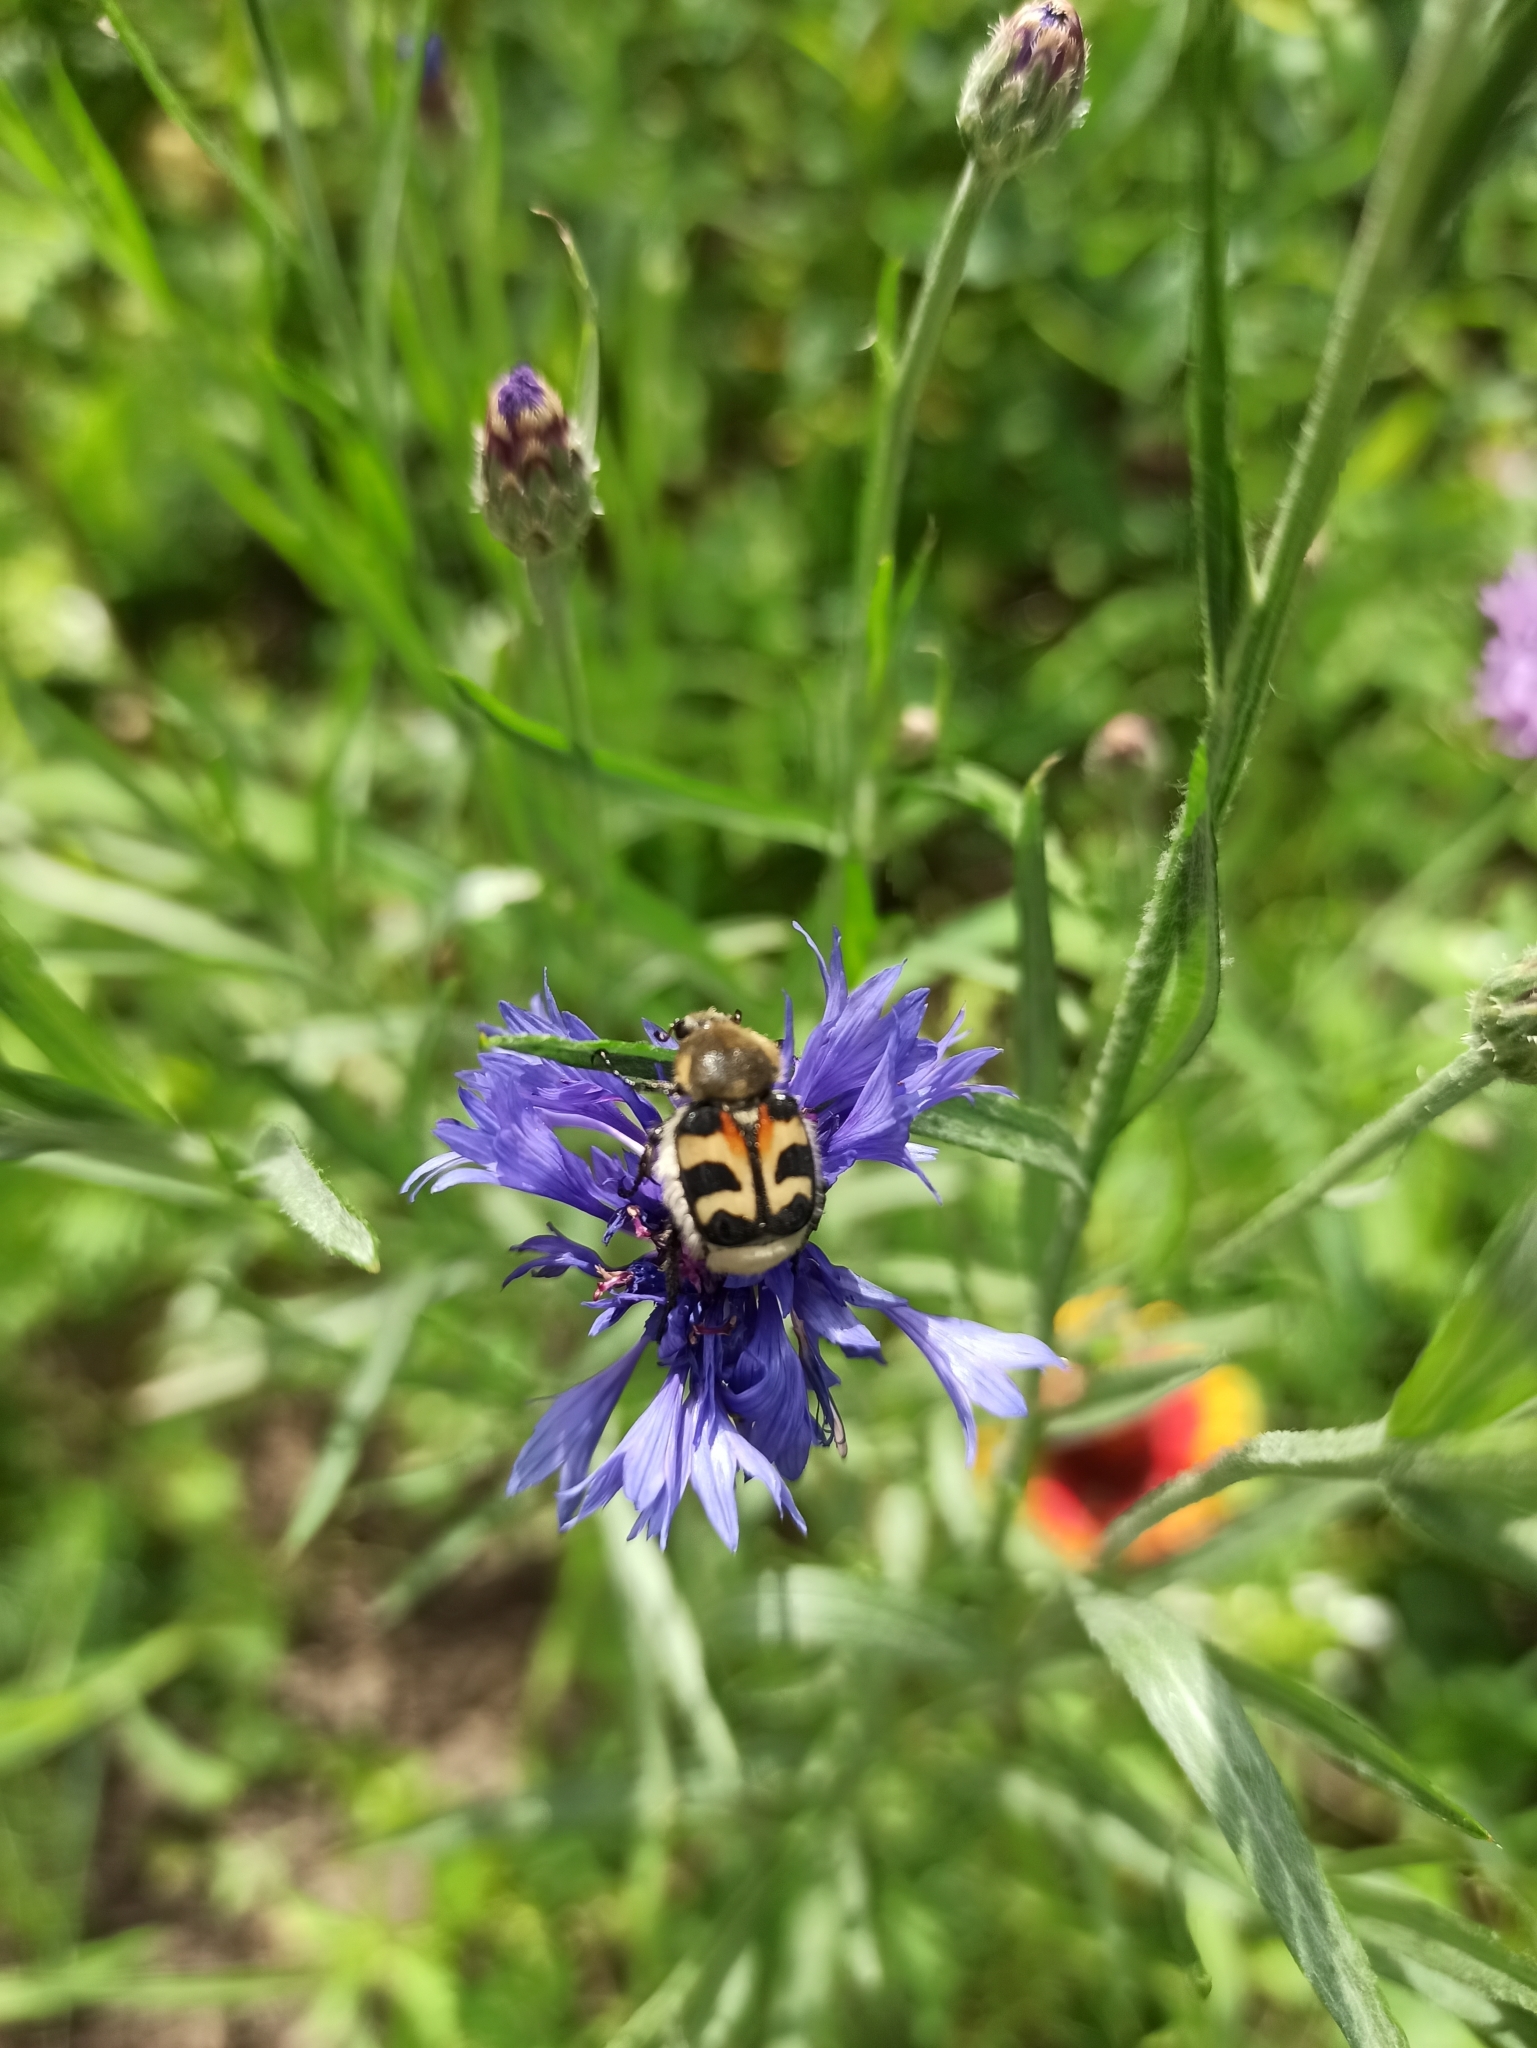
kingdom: Animalia
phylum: Arthropoda
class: Insecta
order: Coleoptera
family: Scarabaeidae
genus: Trichius
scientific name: Trichius fasciatus
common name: Bee beetle
